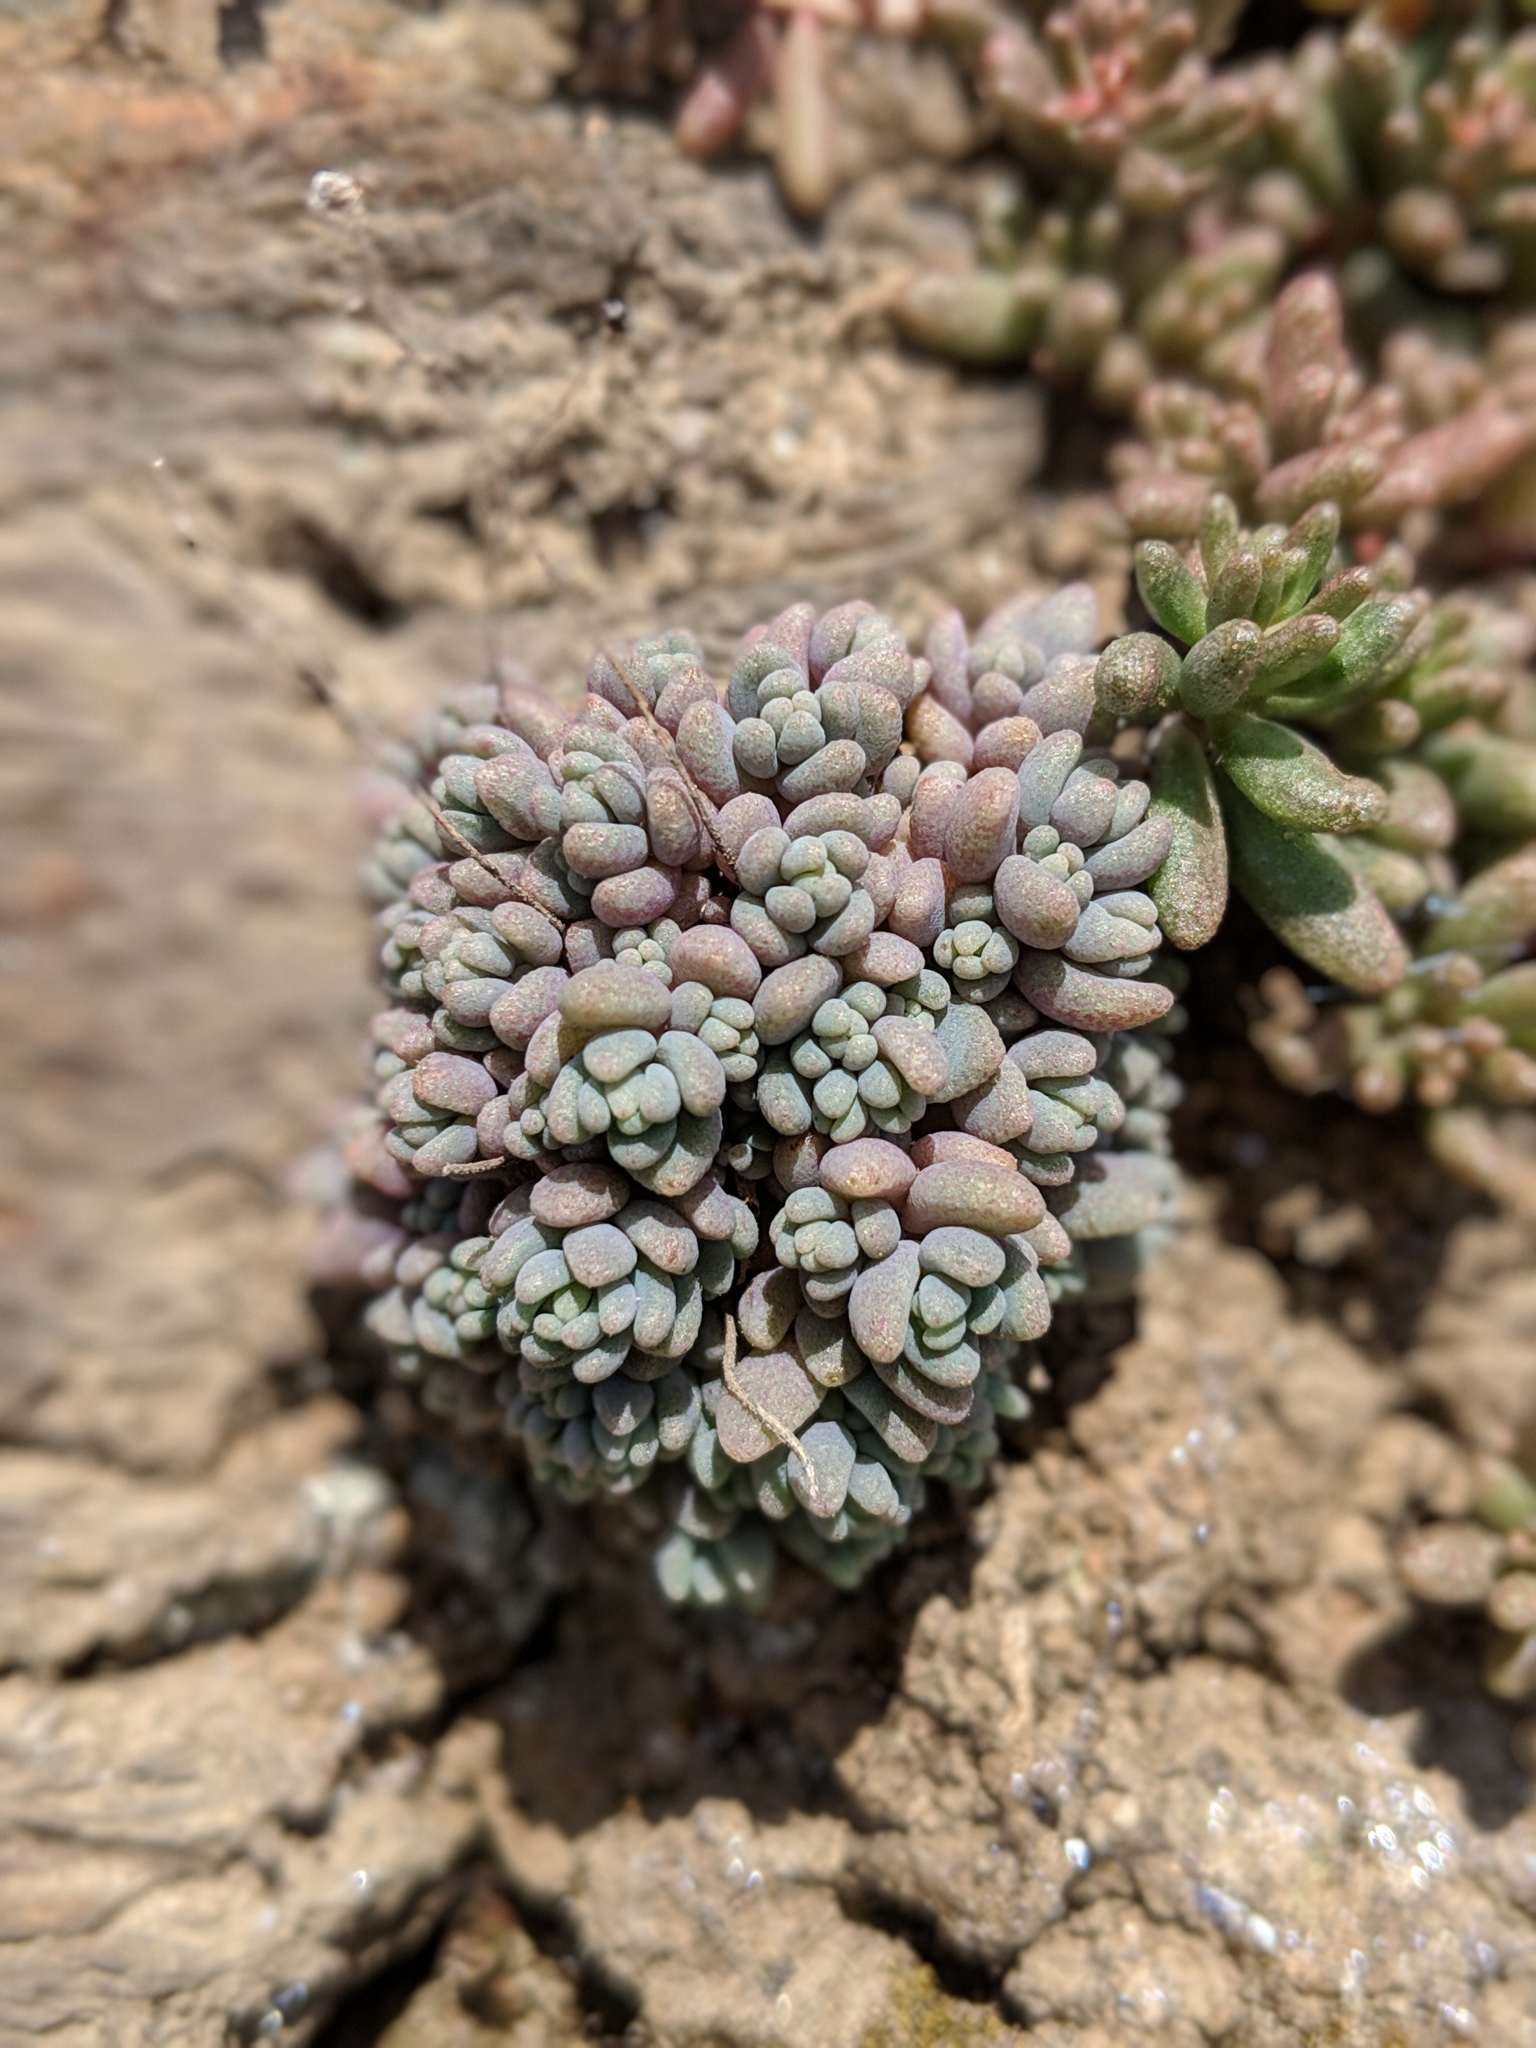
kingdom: Plantae
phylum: Tracheophyta
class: Magnoliopsida
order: Saxifragales
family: Crassulaceae
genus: Sedum
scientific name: Sedum dasyphyllum
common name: Thick-leaf stonecrop
